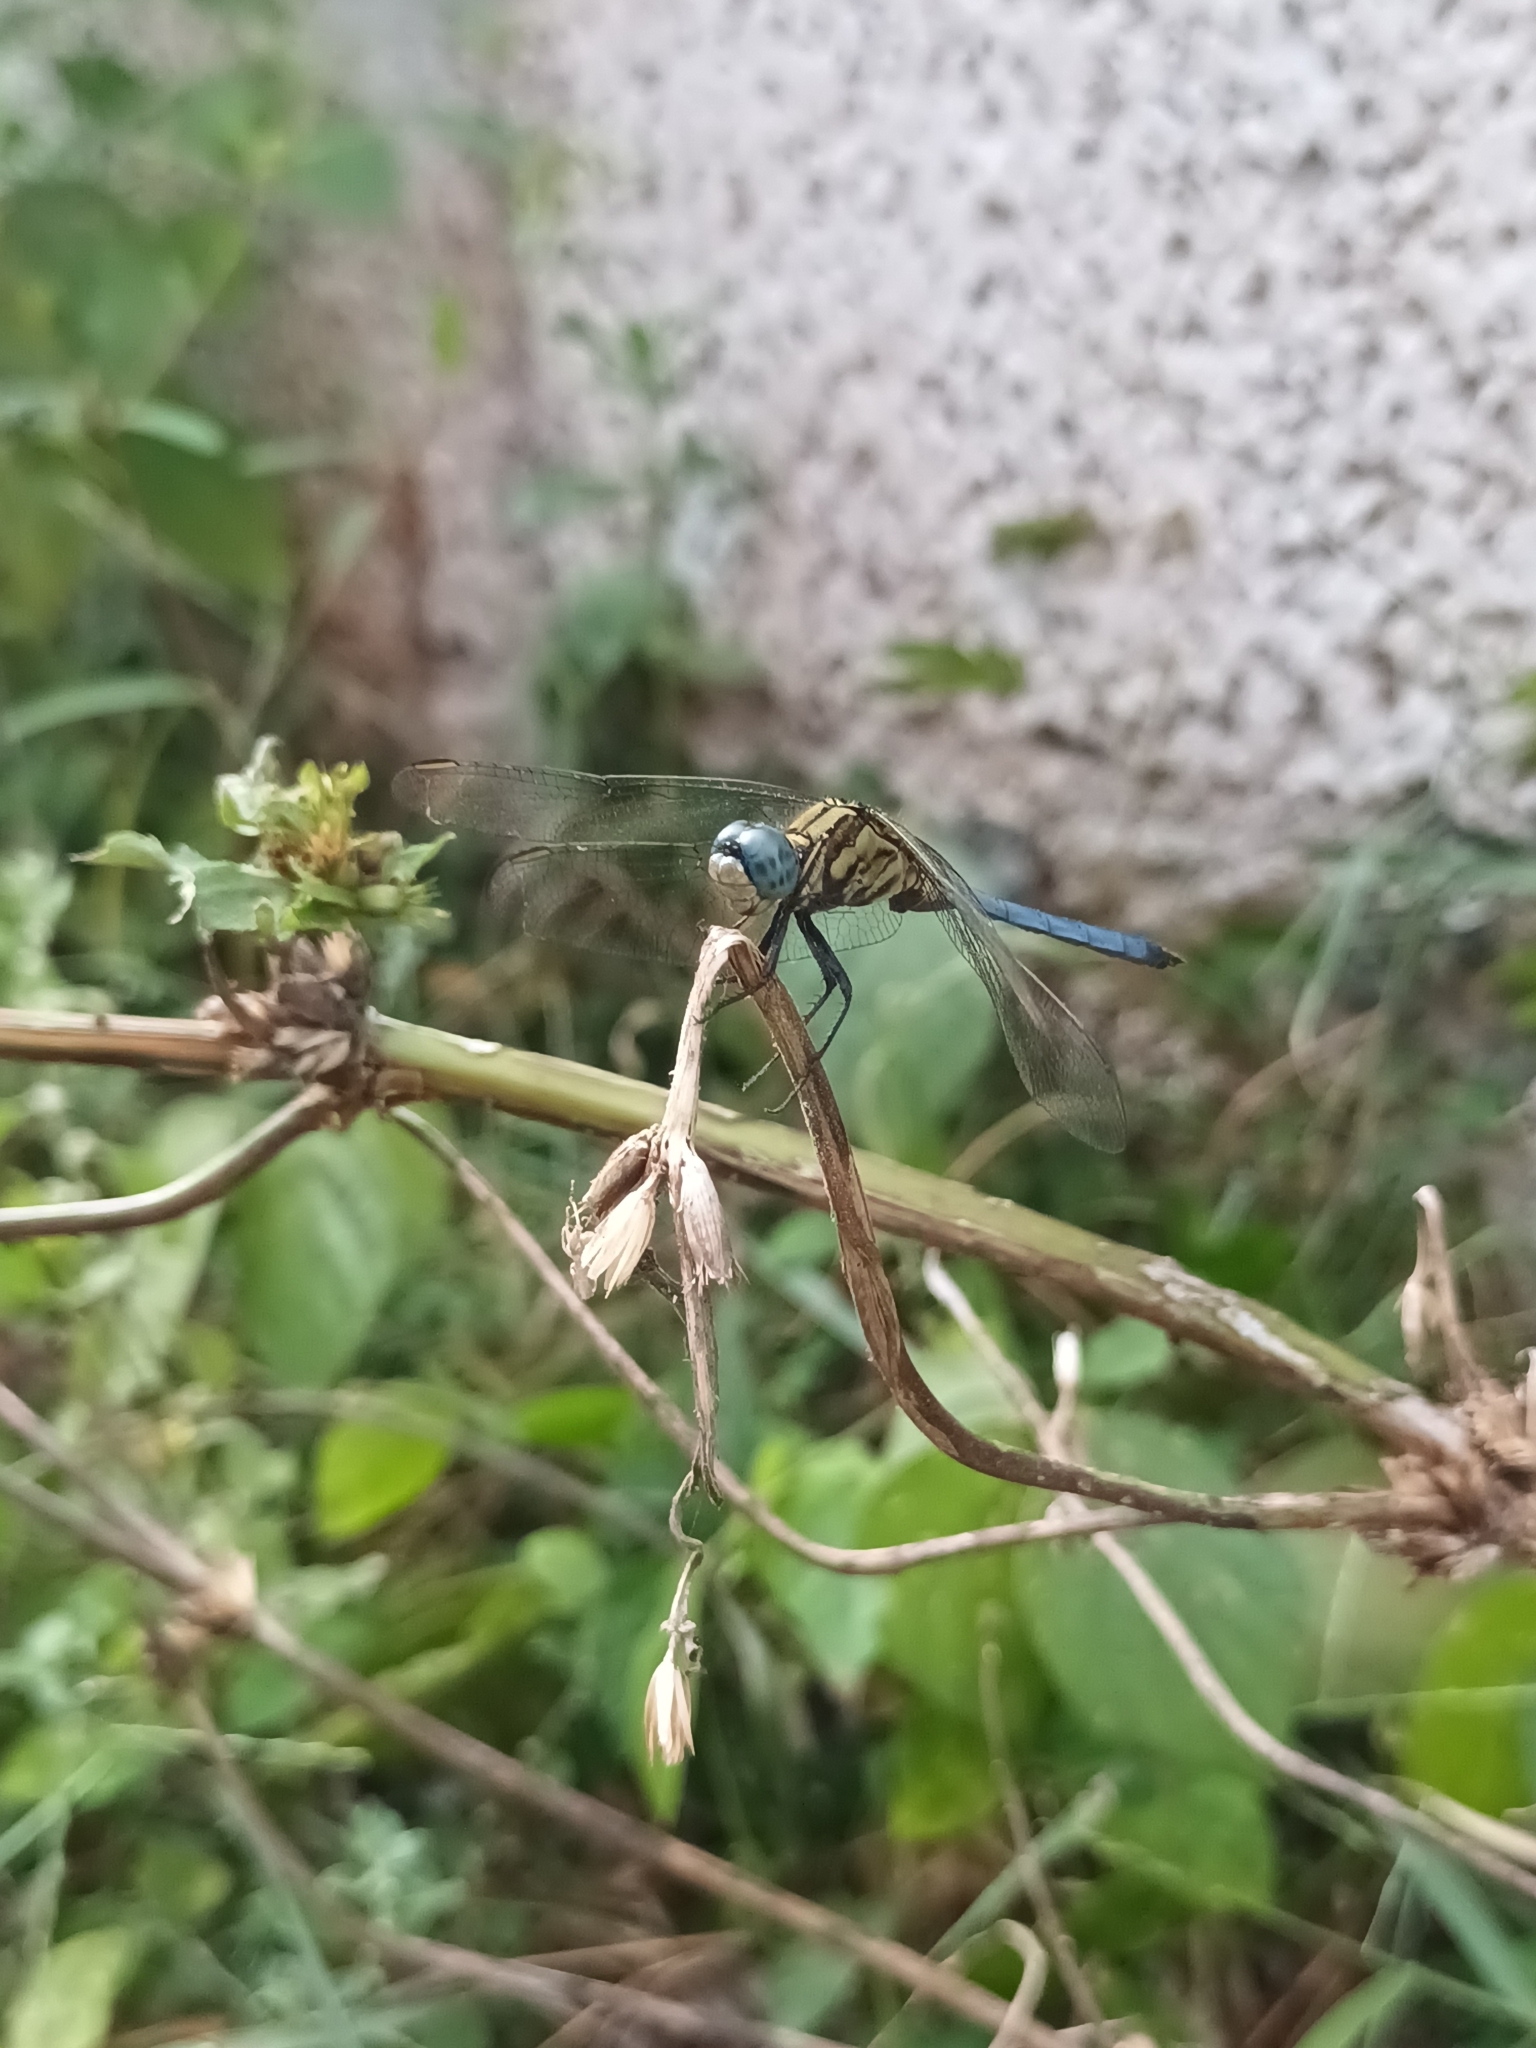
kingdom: Animalia
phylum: Arthropoda
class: Insecta
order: Odonata
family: Libellulidae
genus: Orthetrum
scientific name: Orthetrum luzonicum
